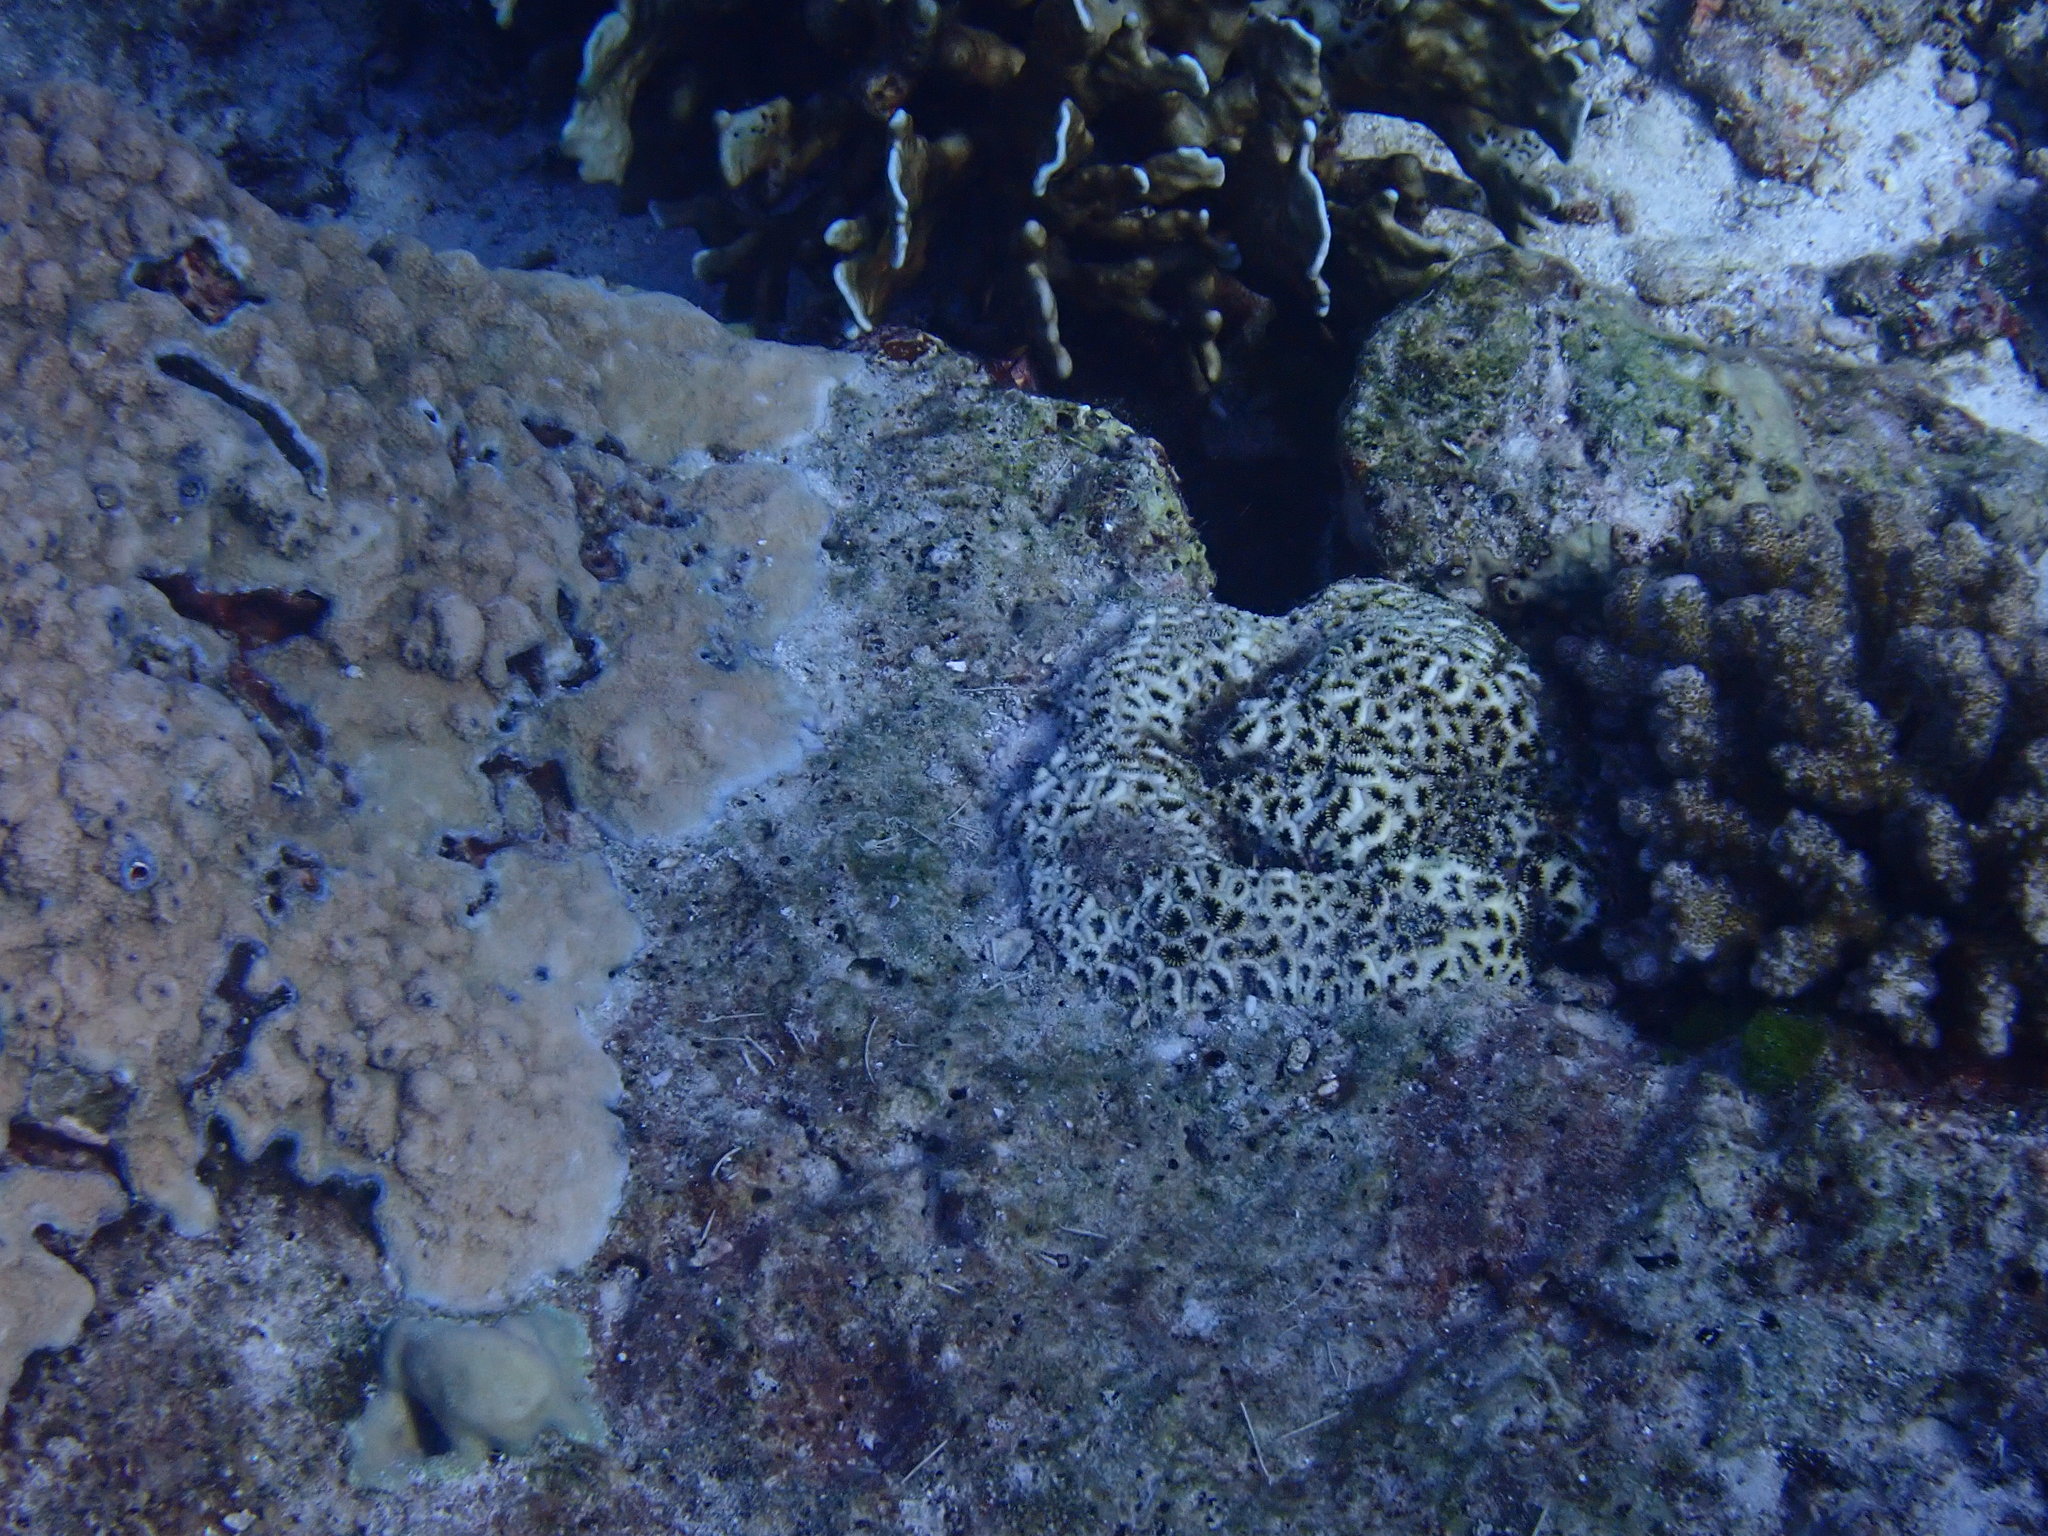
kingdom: Animalia
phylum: Cnidaria
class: Anthozoa
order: Zoantharia
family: Sphenopidae
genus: Palythoa
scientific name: Palythoa tuberculosa
